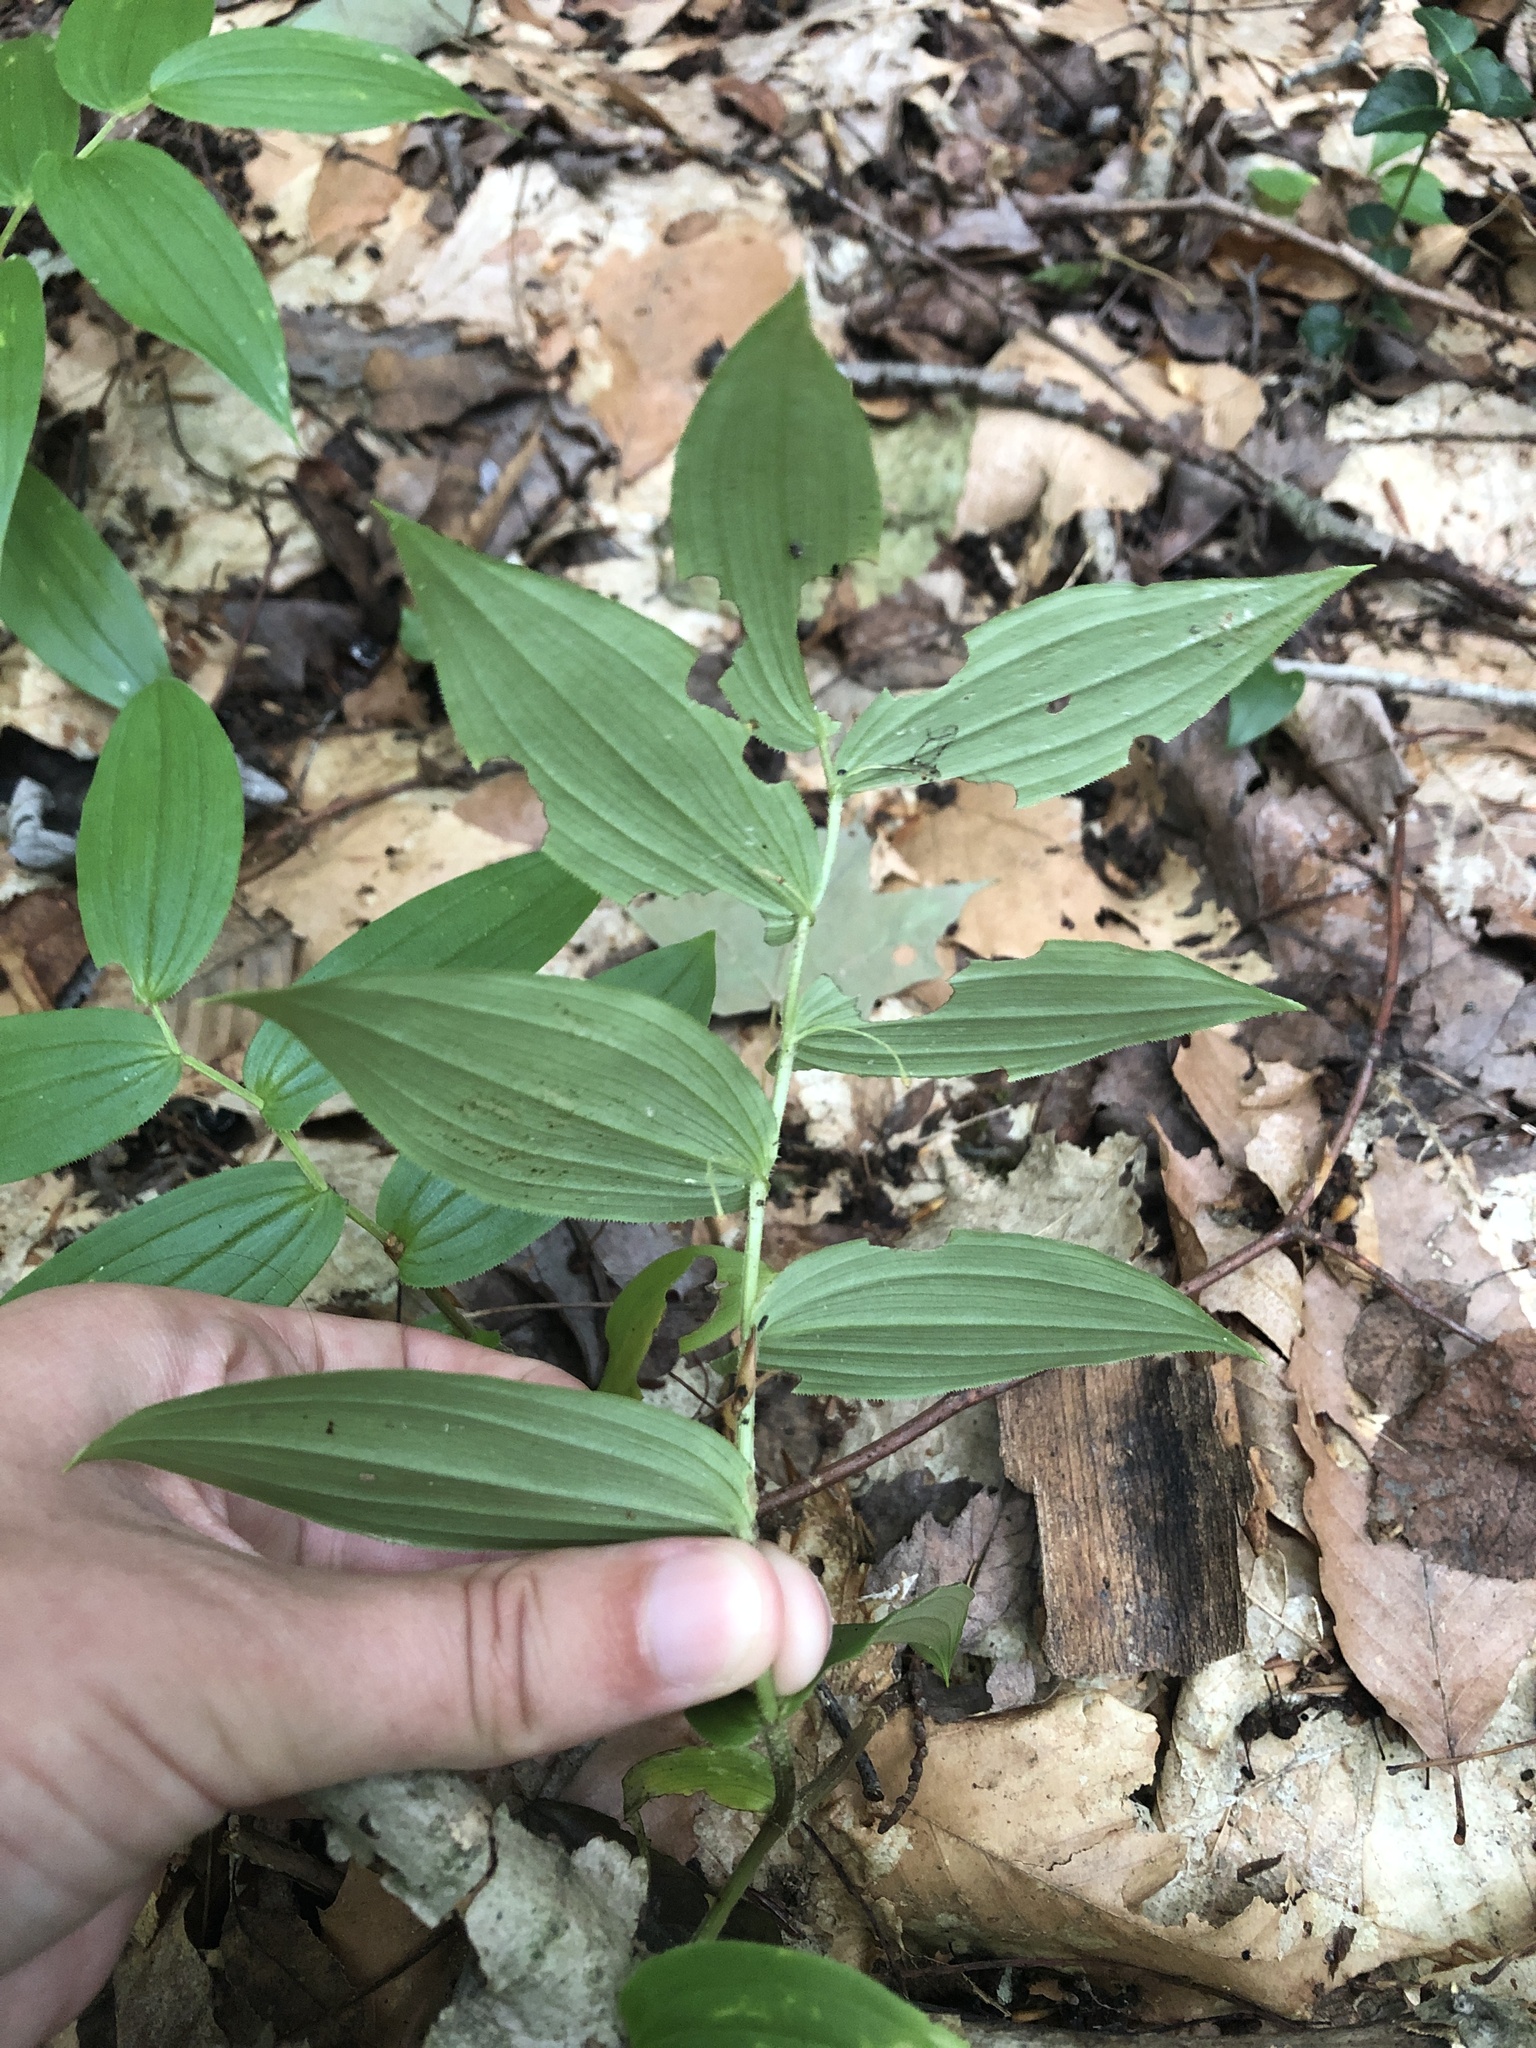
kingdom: Plantae
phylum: Tracheophyta
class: Liliopsida
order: Liliales
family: Liliaceae
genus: Streptopus
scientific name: Streptopus lanceolatus
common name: Rose mandarin
